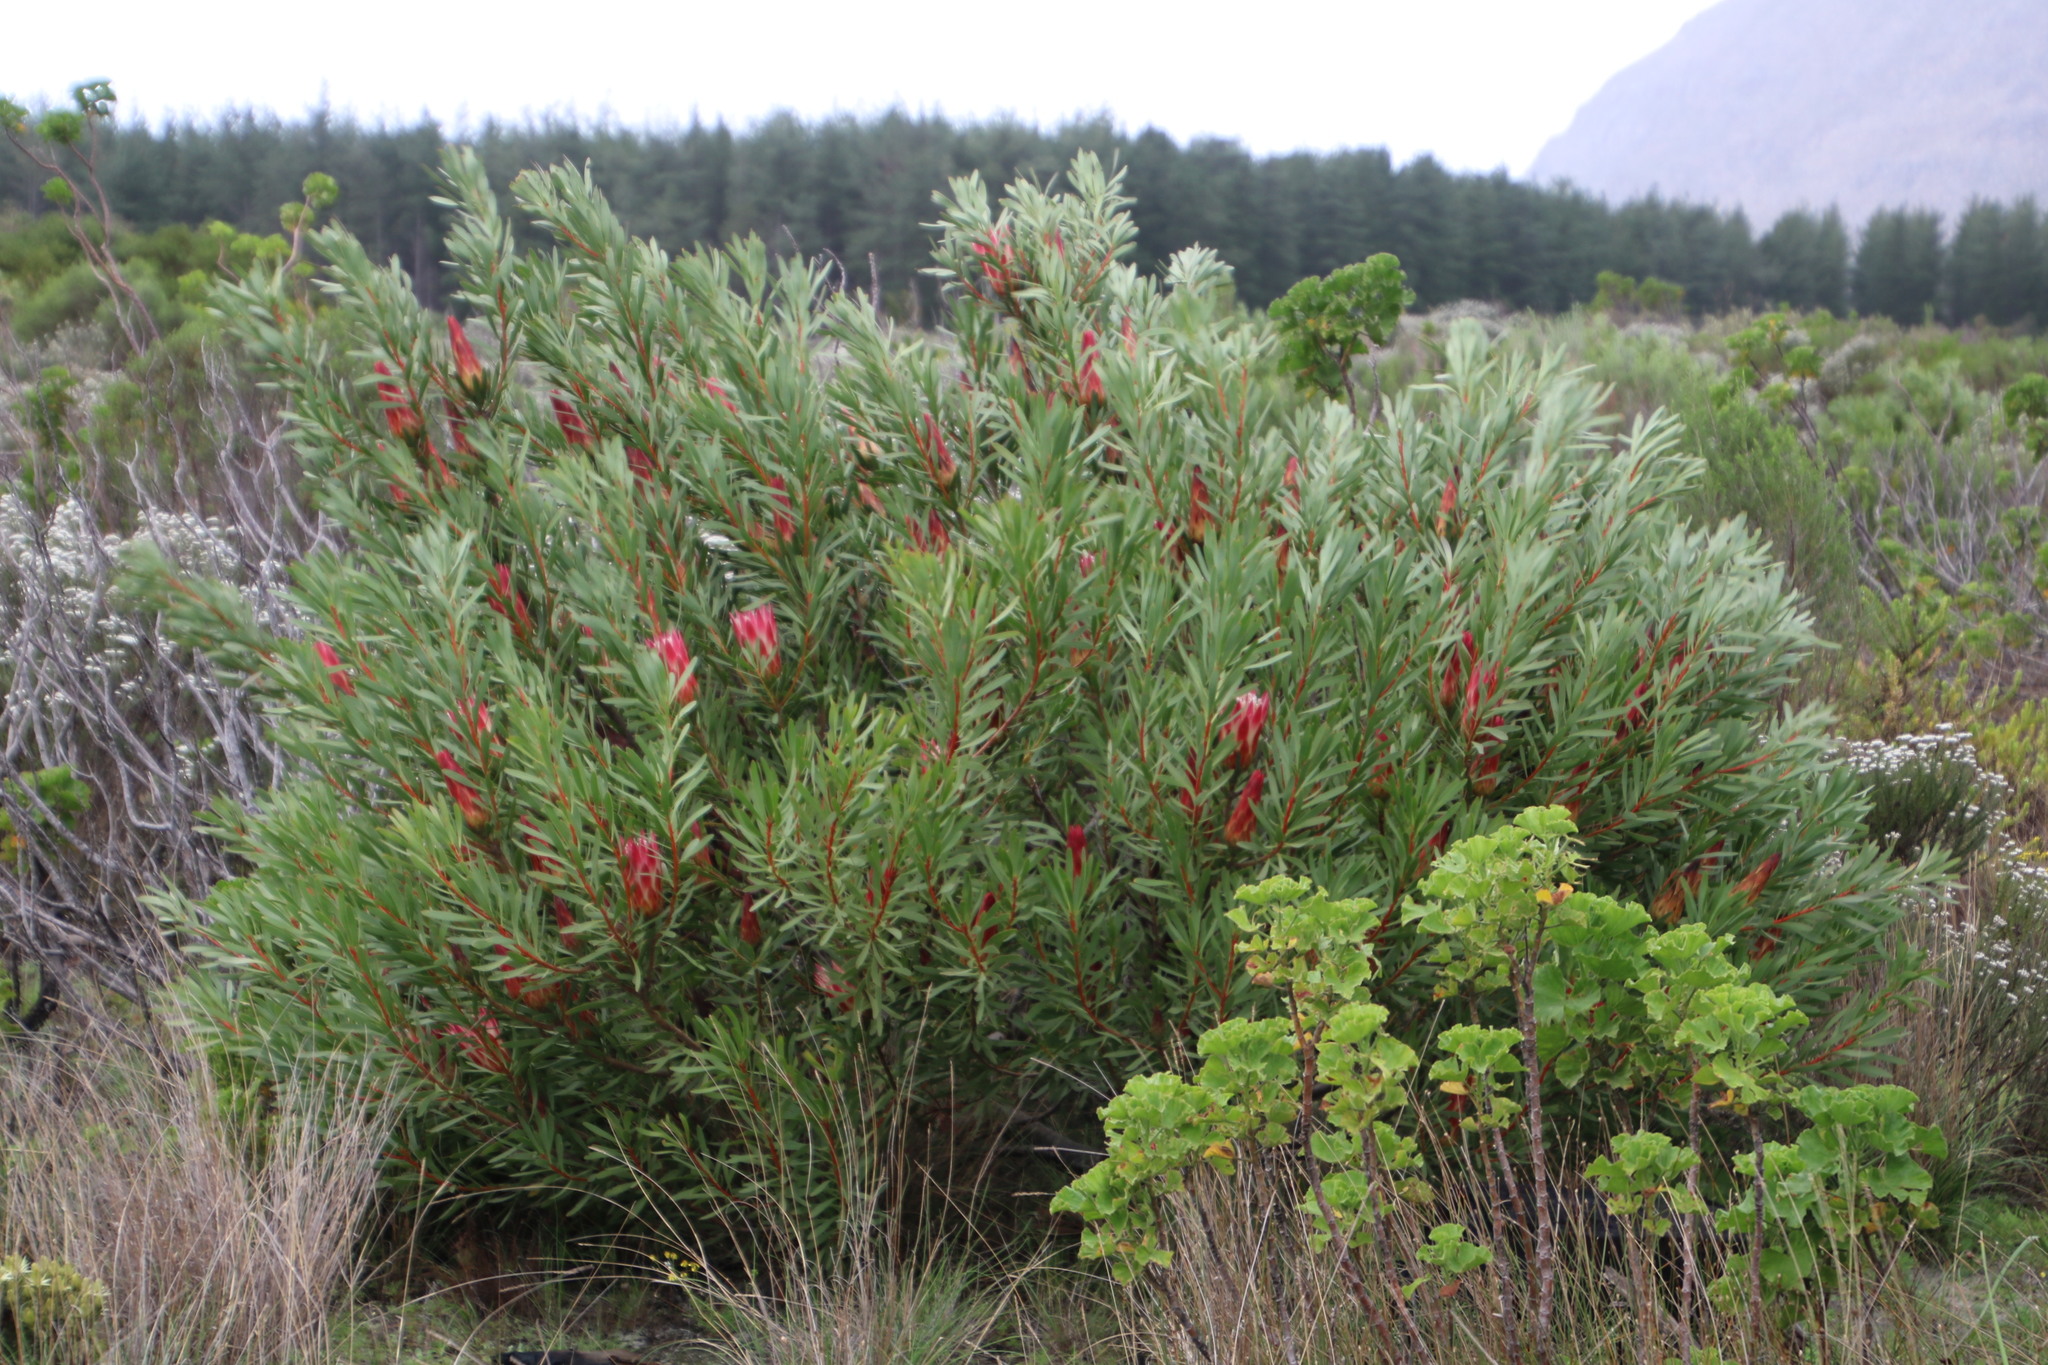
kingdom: Plantae
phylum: Tracheophyta
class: Magnoliopsida
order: Proteales
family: Proteaceae
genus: Protea
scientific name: Protea repens
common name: Sugarbush
